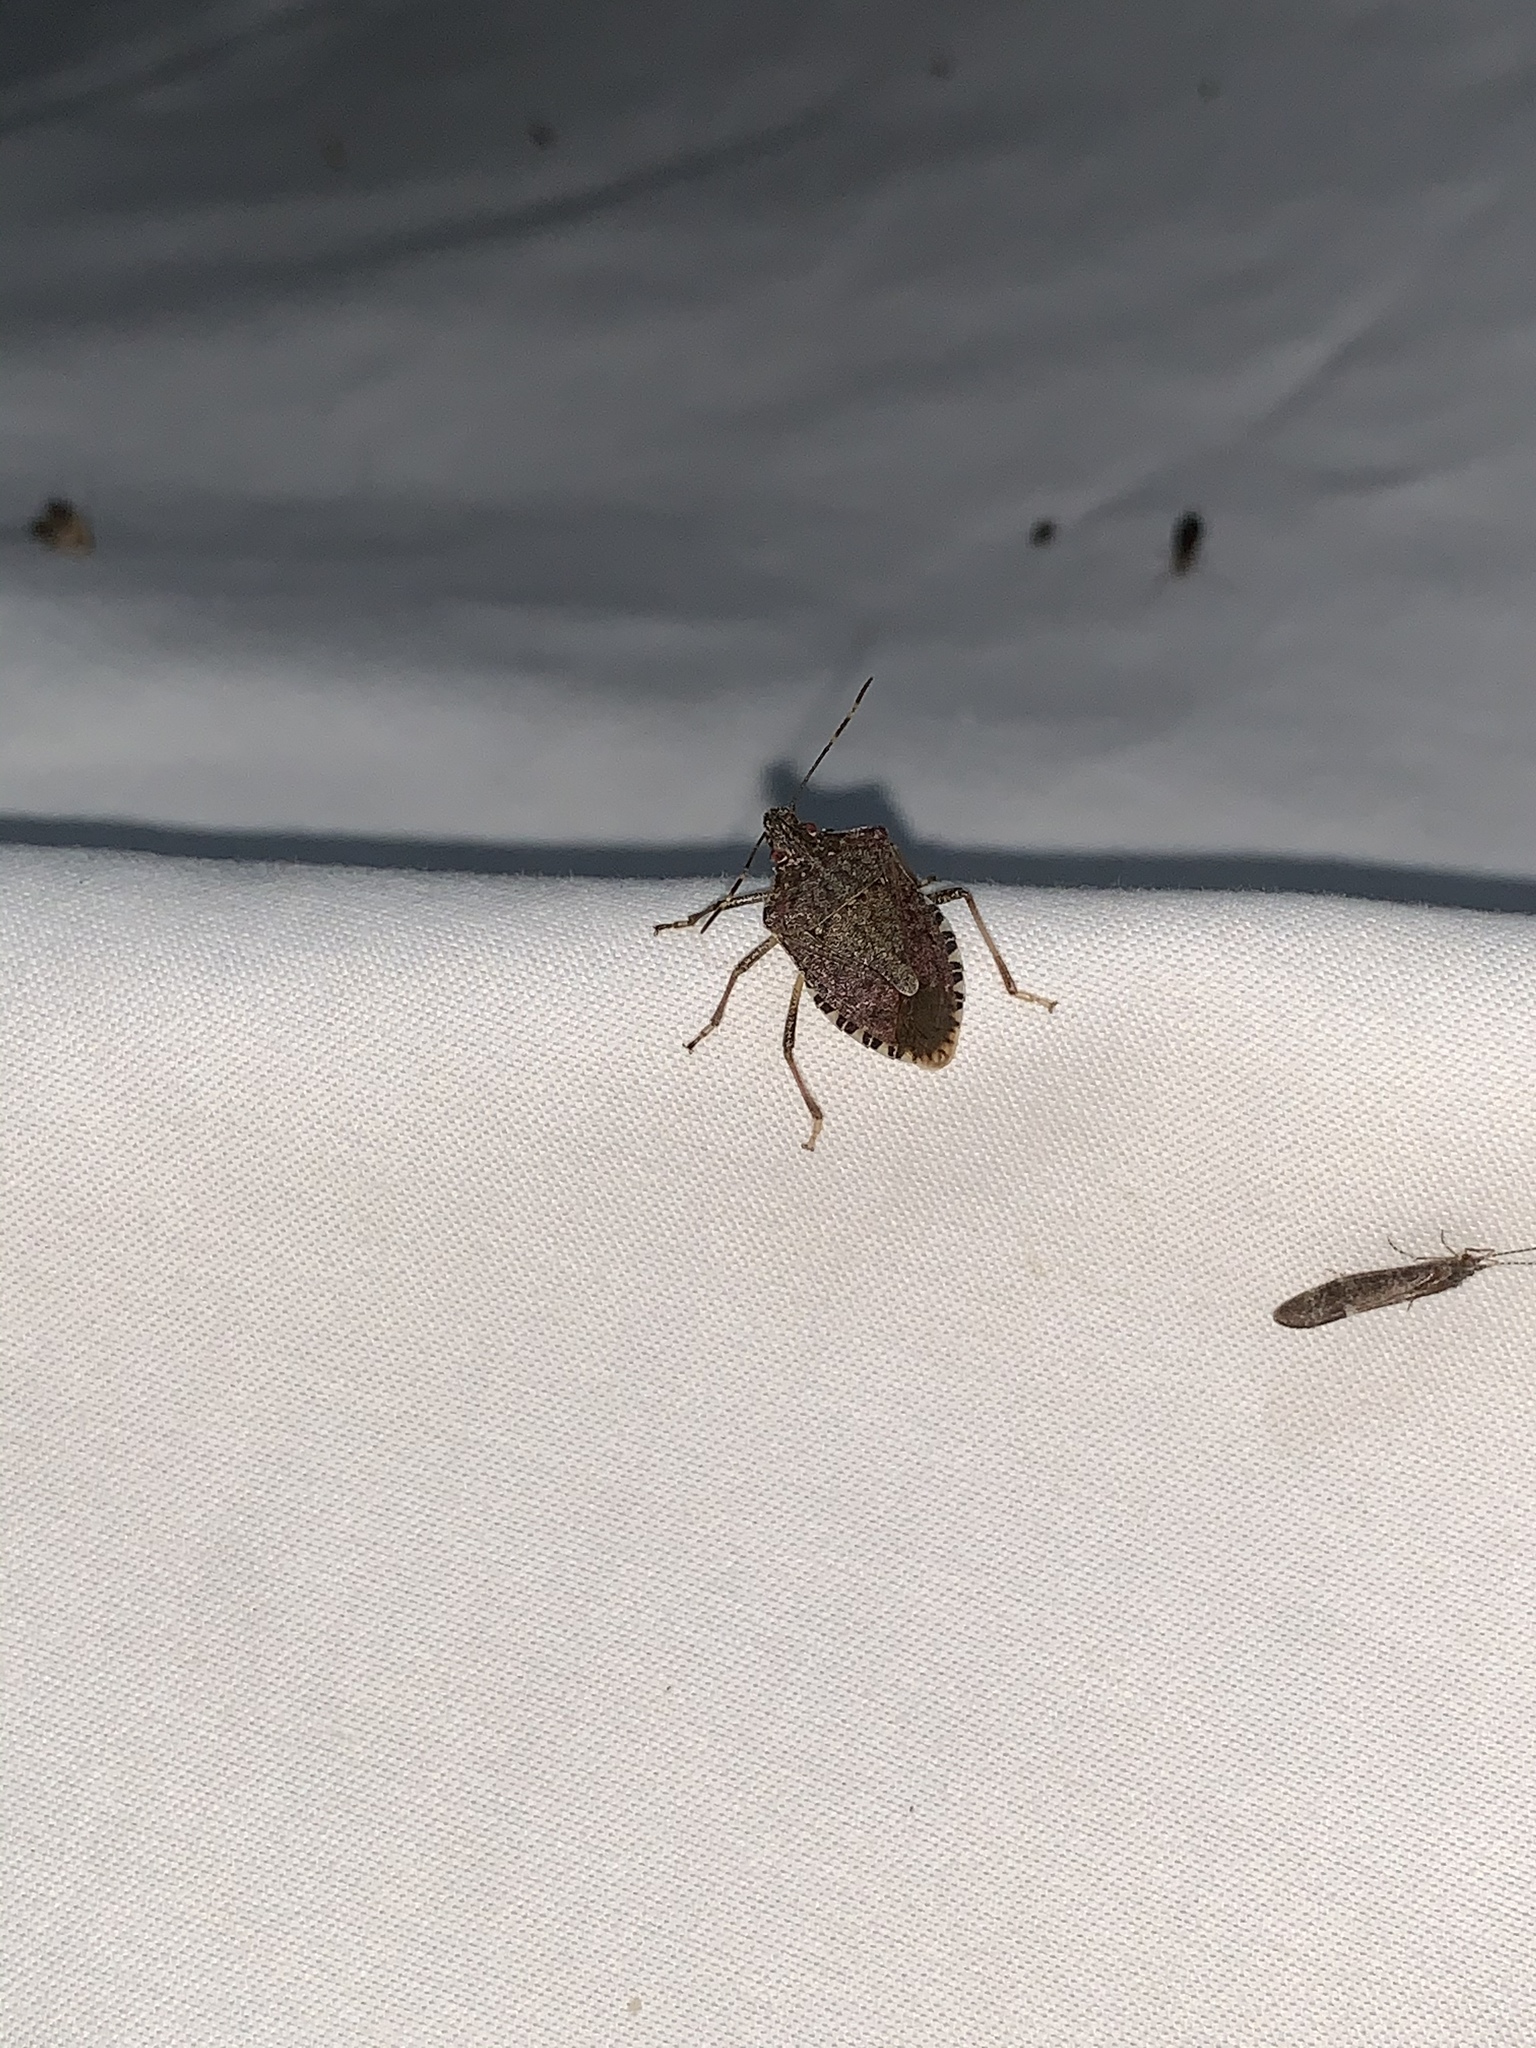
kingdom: Animalia
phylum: Arthropoda
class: Insecta
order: Hemiptera
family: Pentatomidae
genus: Halyomorpha
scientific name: Halyomorpha halys
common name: Brown marmorated stink bug
